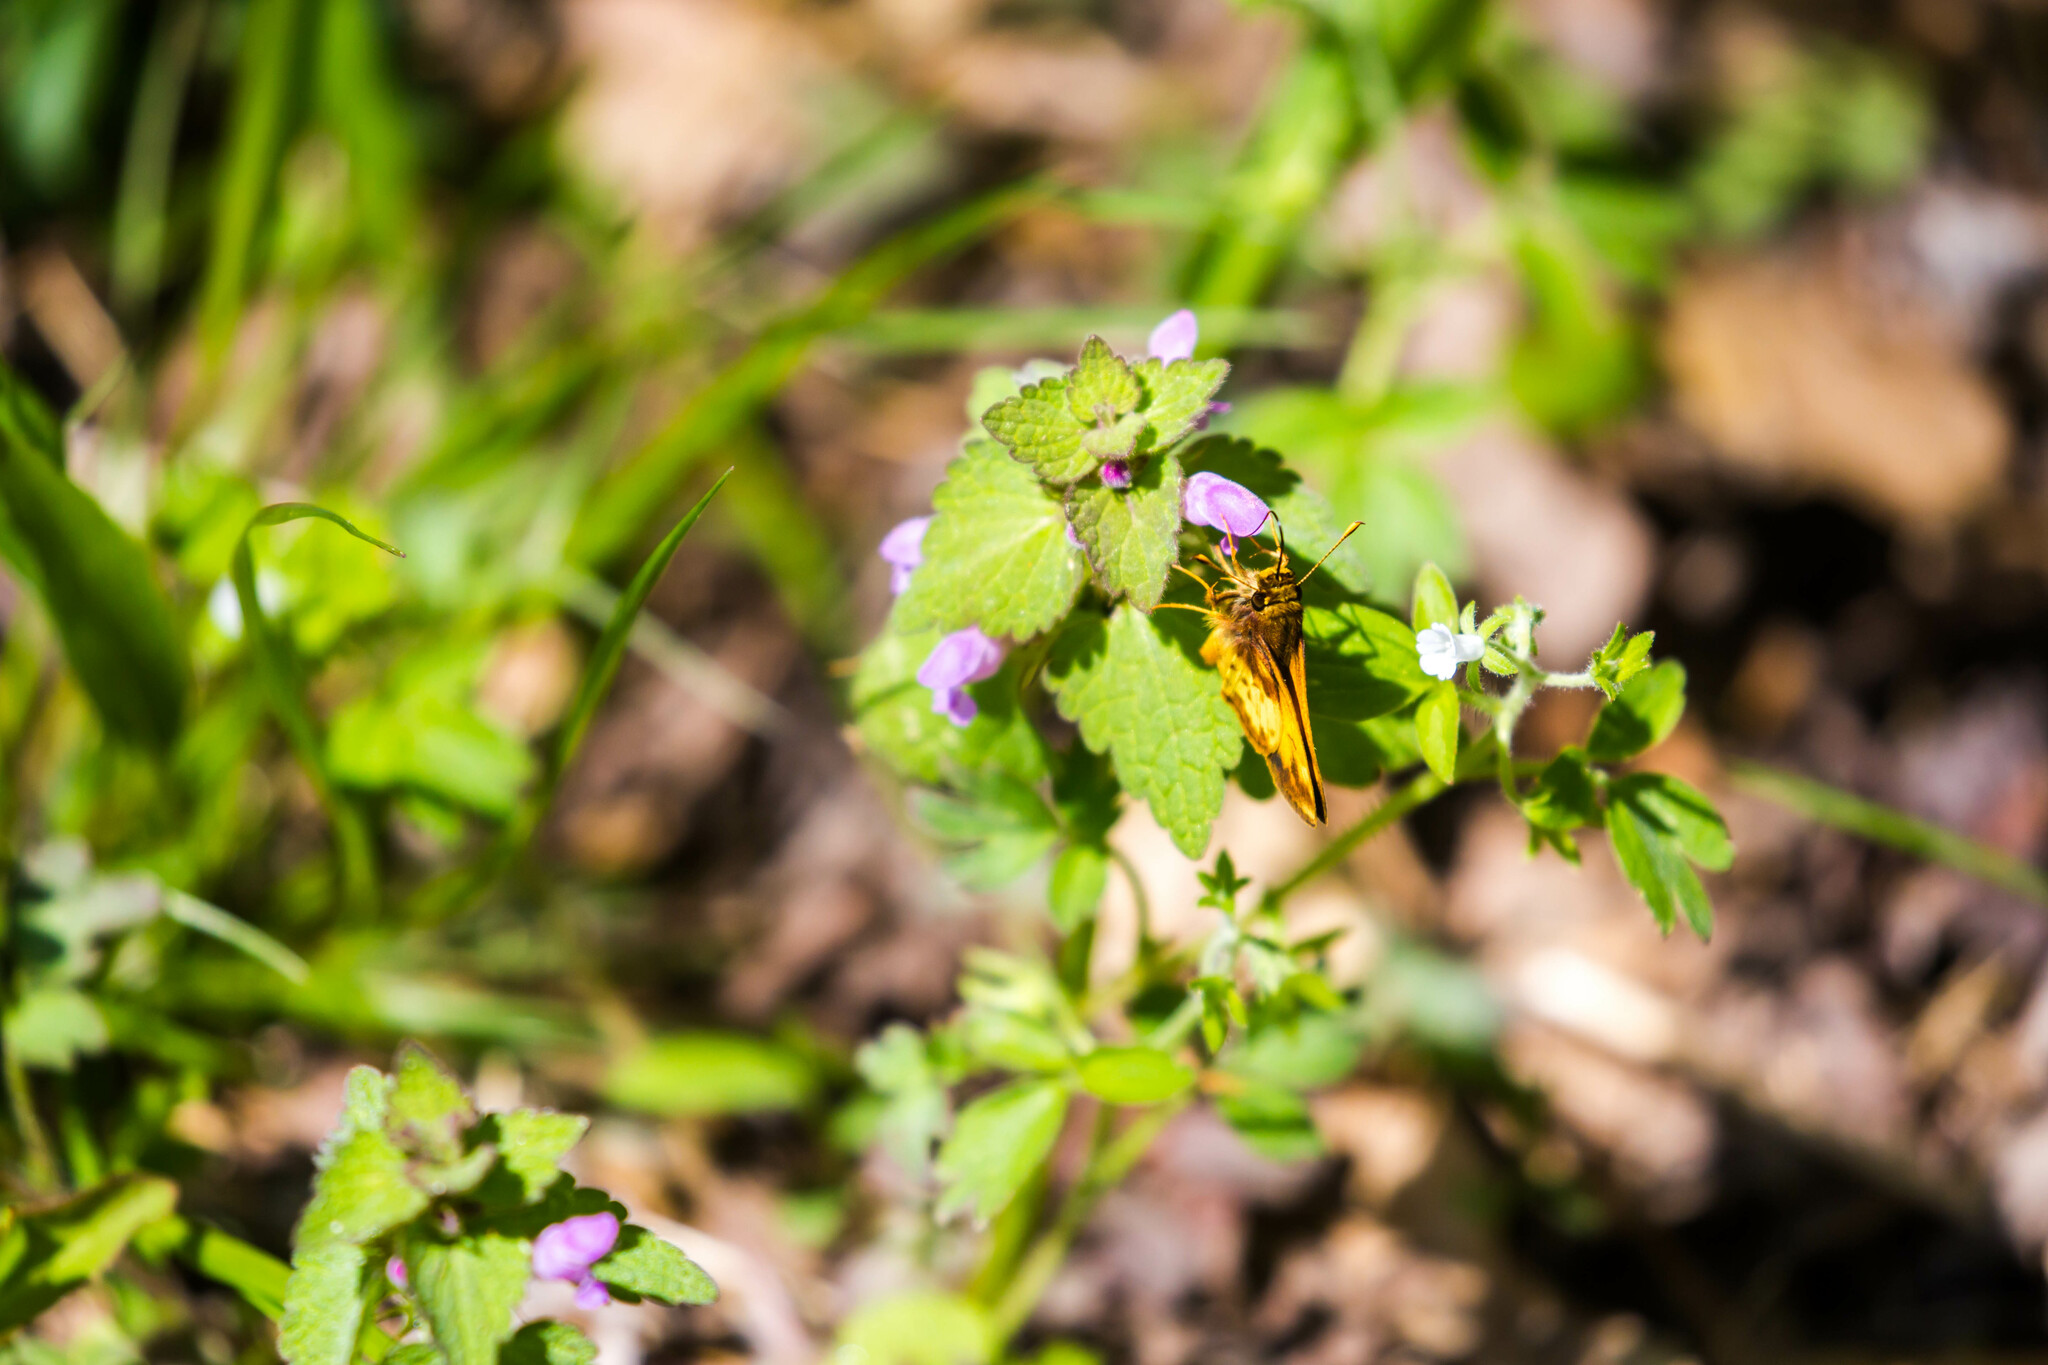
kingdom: Animalia
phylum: Arthropoda
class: Insecta
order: Lepidoptera
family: Hesperiidae
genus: Lon
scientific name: Lon zabulon
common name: Zabulon skipper
